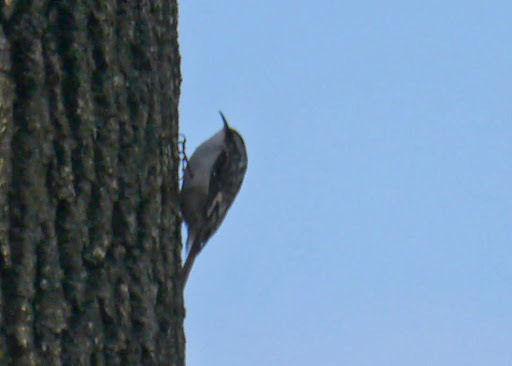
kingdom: Animalia
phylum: Chordata
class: Aves
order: Passeriformes
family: Certhiidae
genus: Certhia
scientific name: Certhia americana
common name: Brown creeper
